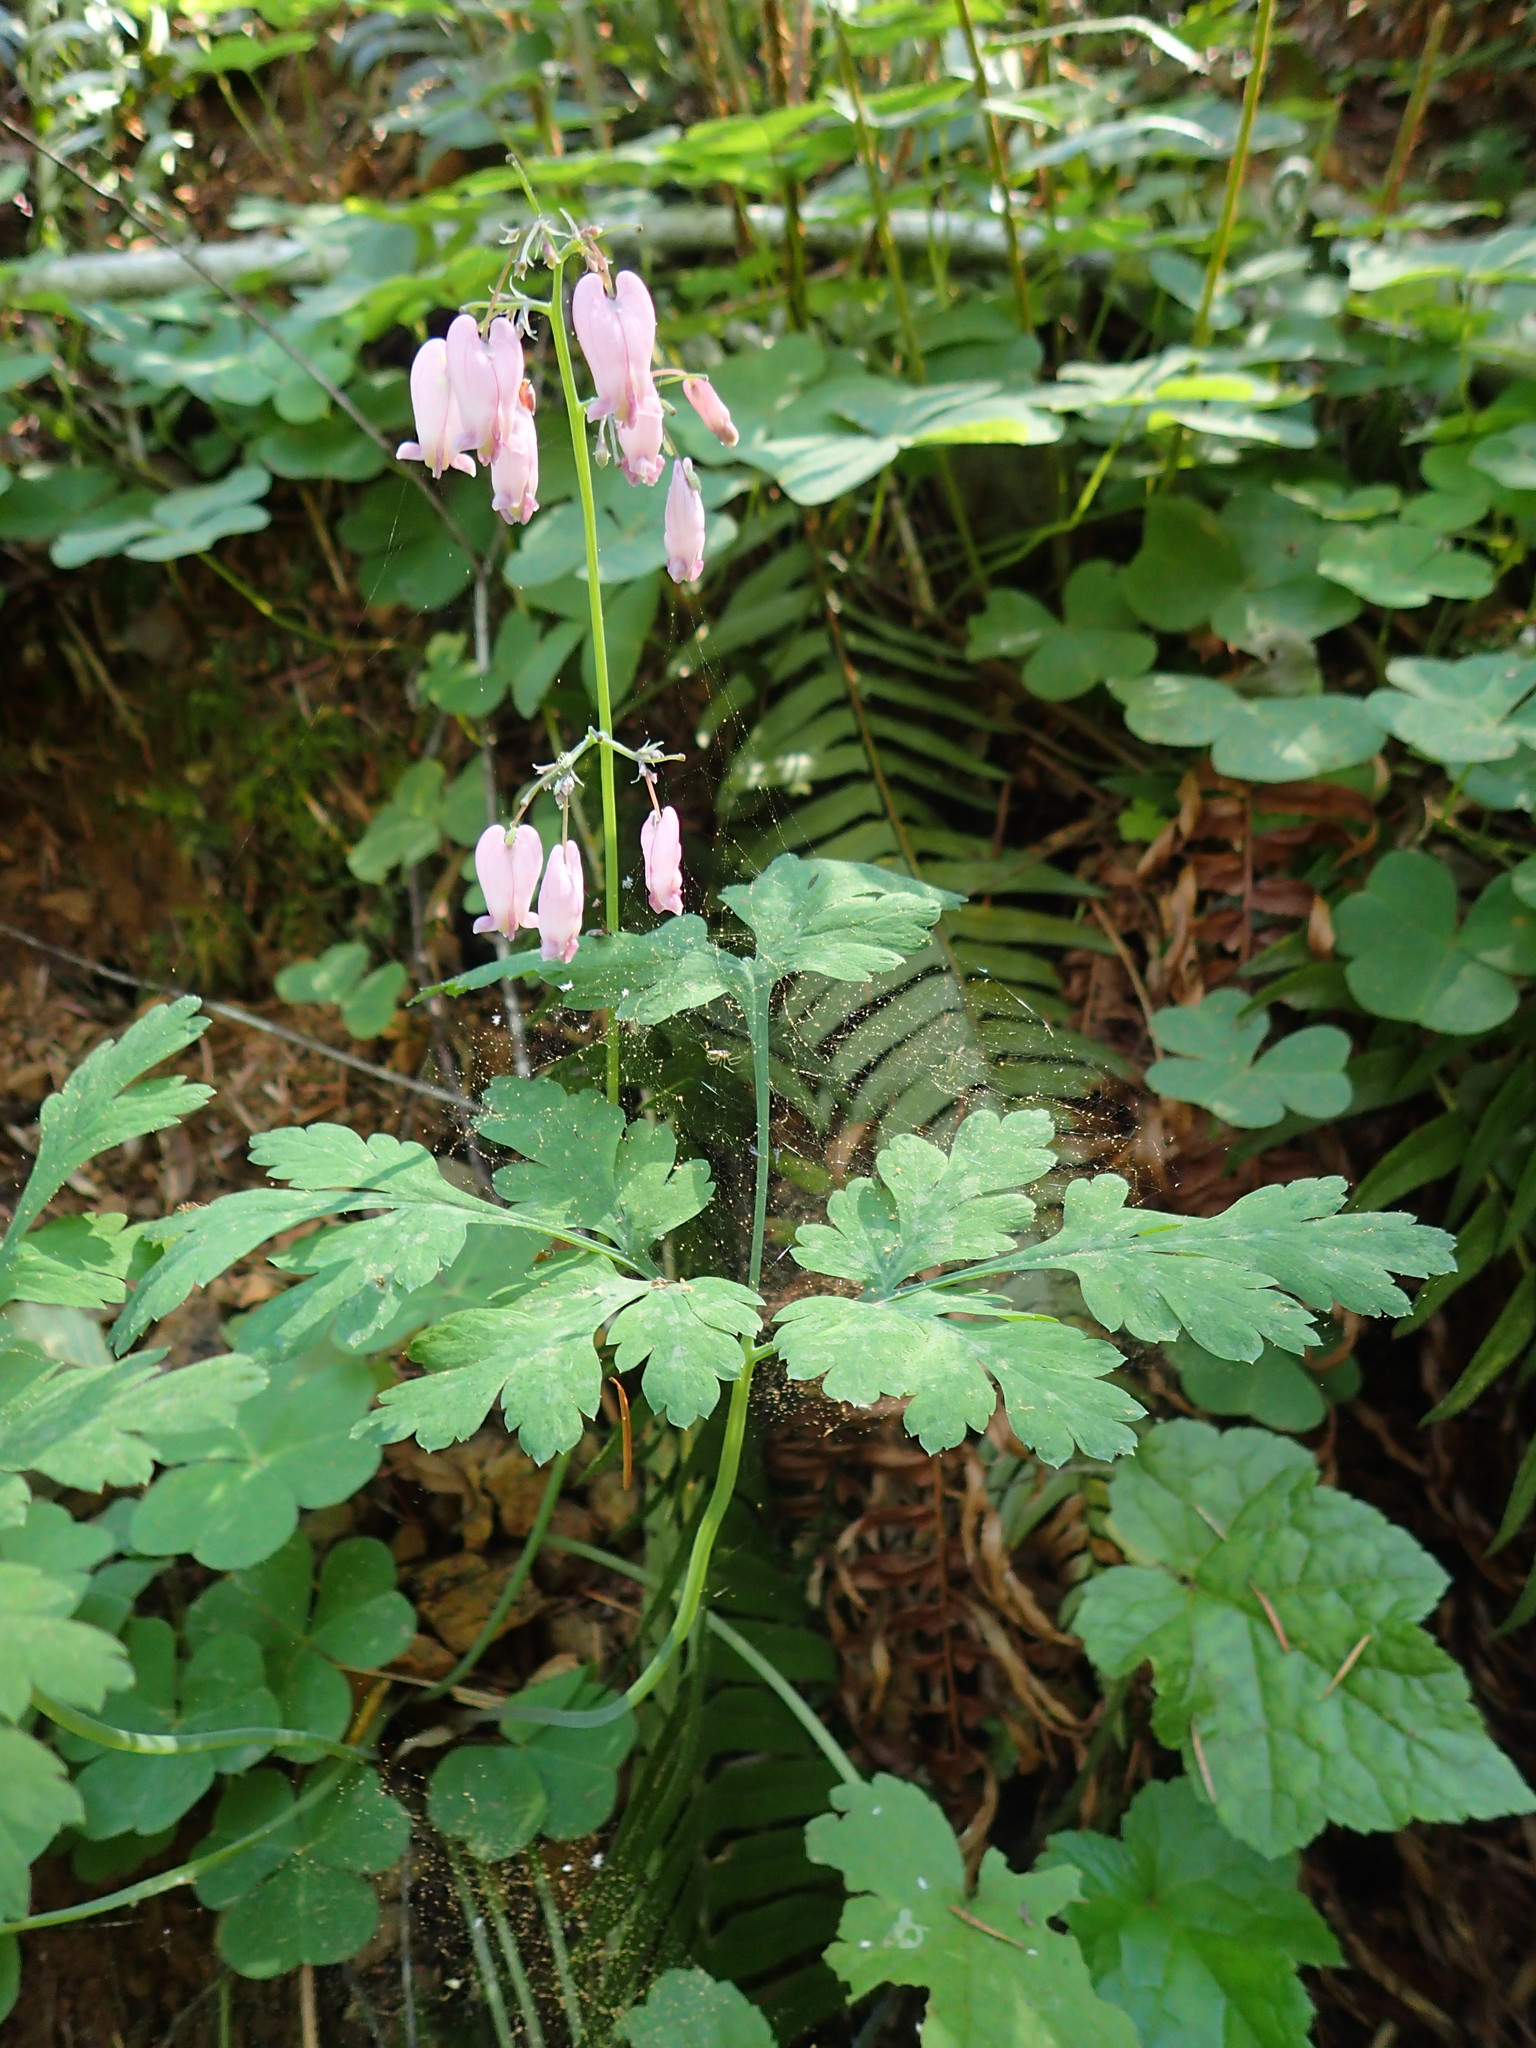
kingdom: Plantae
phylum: Tracheophyta
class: Magnoliopsida
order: Ranunculales
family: Papaveraceae
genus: Dicentra
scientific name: Dicentra formosa
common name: Bleeding-heart
